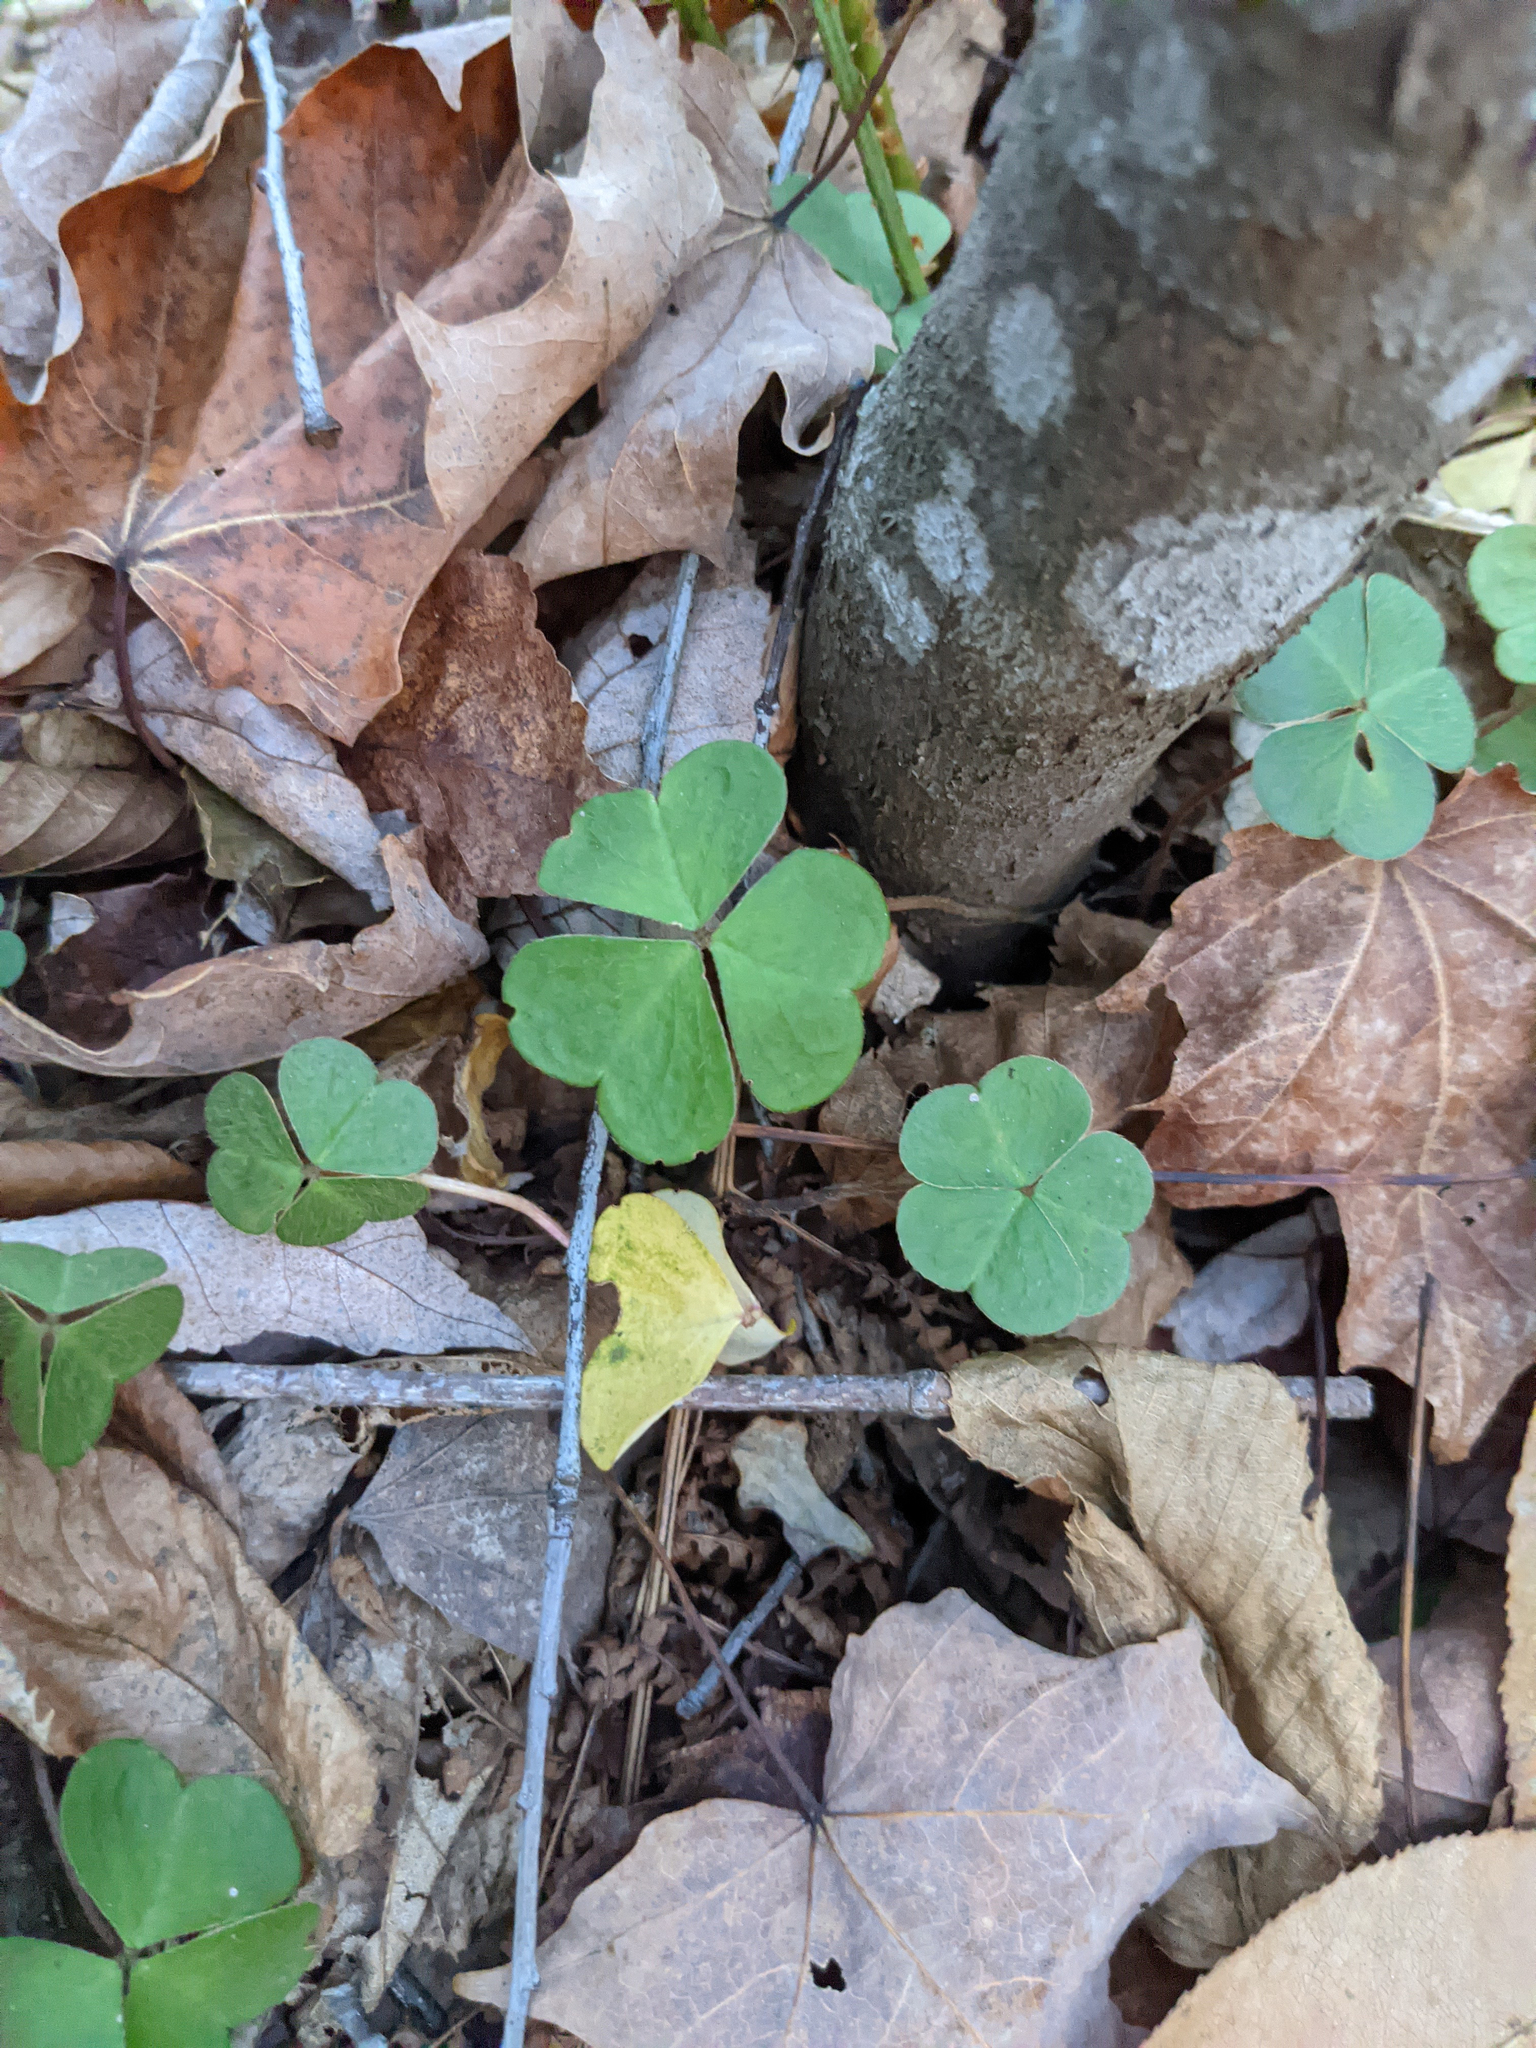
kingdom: Plantae
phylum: Tracheophyta
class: Magnoliopsida
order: Oxalidales
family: Oxalidaceae
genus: Oxalis
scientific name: Oxalis montana
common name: American wood-sorrel
